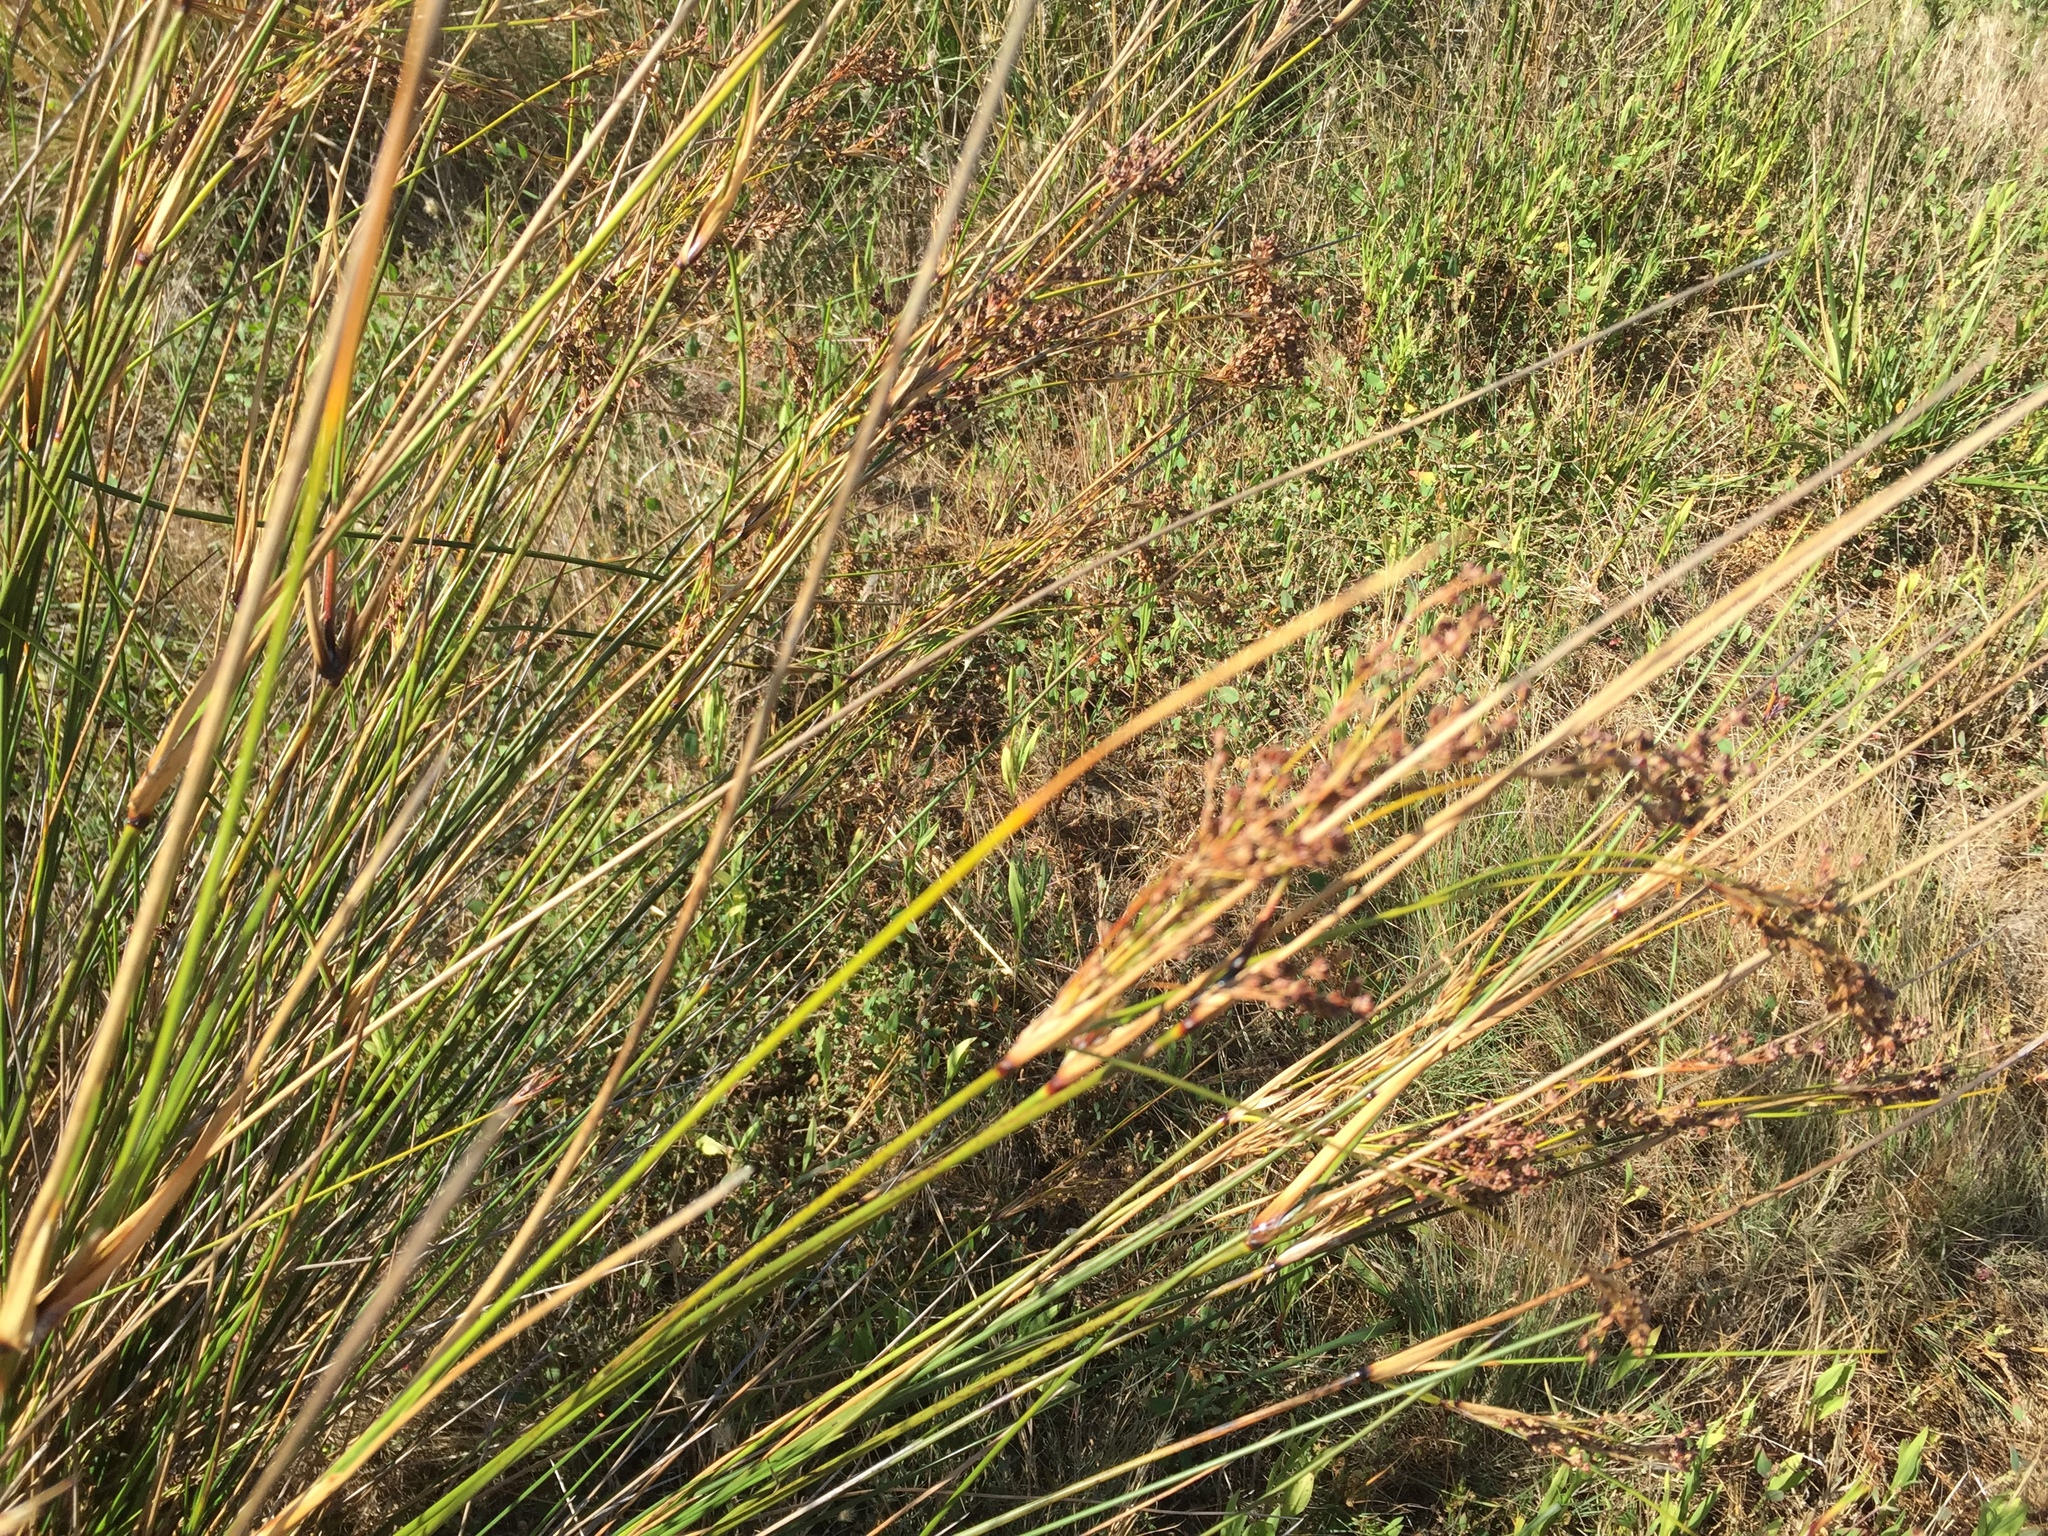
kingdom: Plantae
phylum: Tracheophyta
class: Liliopsida
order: Poales
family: Juncaceae
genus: Juncus
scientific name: Juncus kraussii
